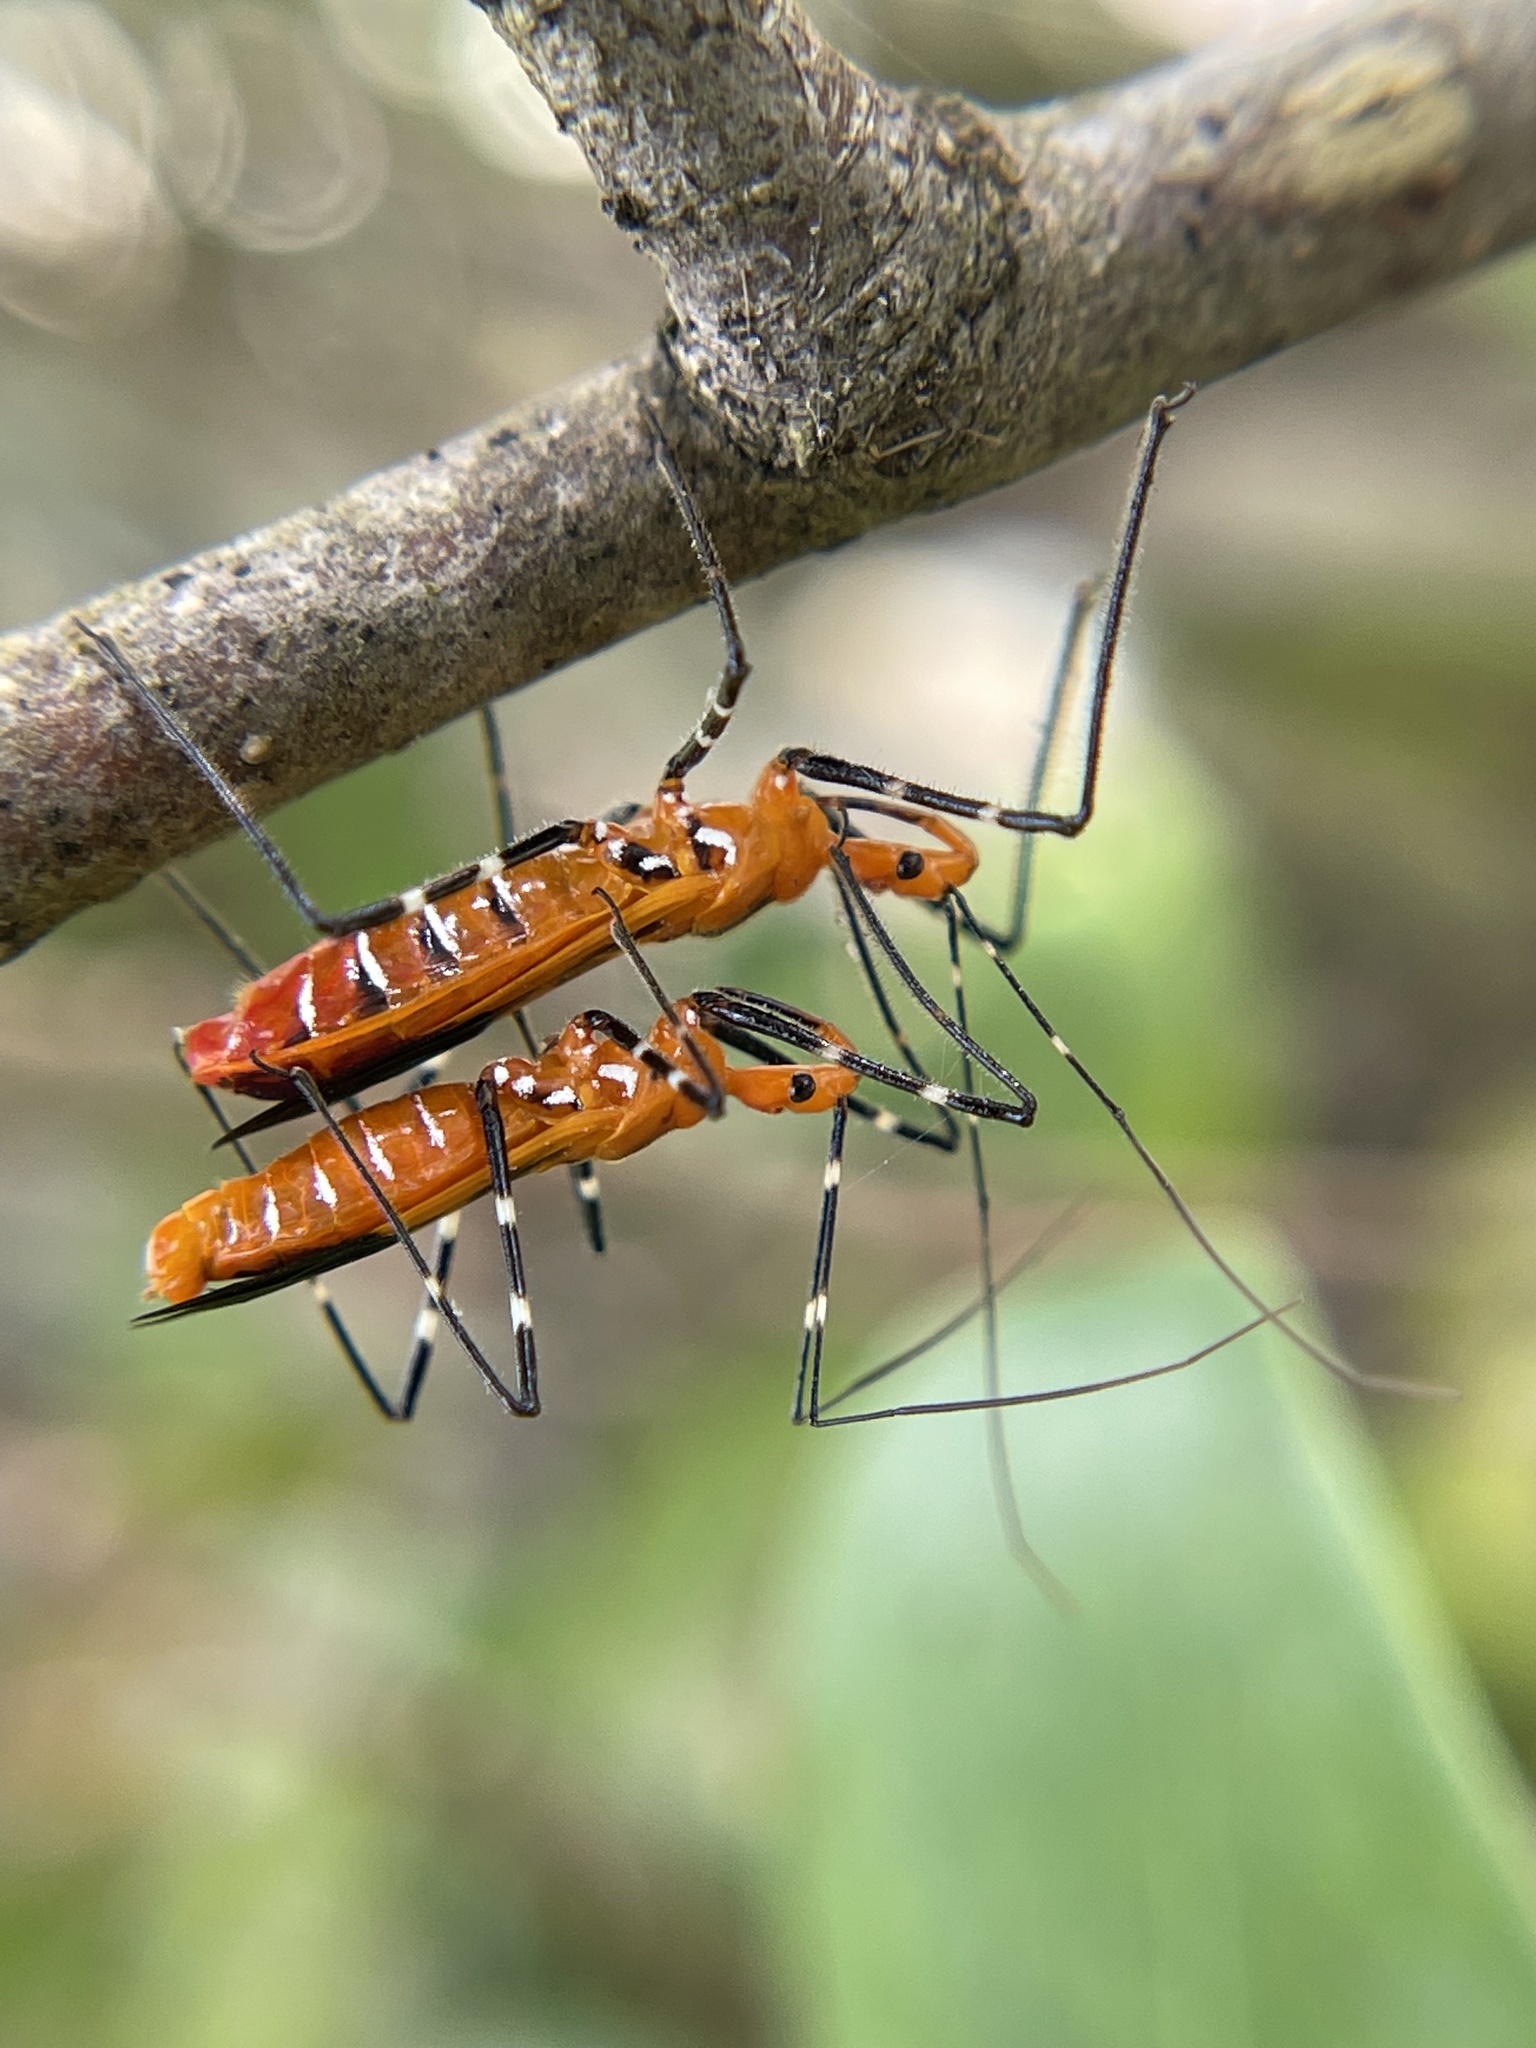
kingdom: Animalia
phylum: Arthropoda
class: Insecta
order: Hemiptera
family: Reduviidae
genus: Zelus
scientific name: Zelus longipes
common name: Milkweed assassin bug
